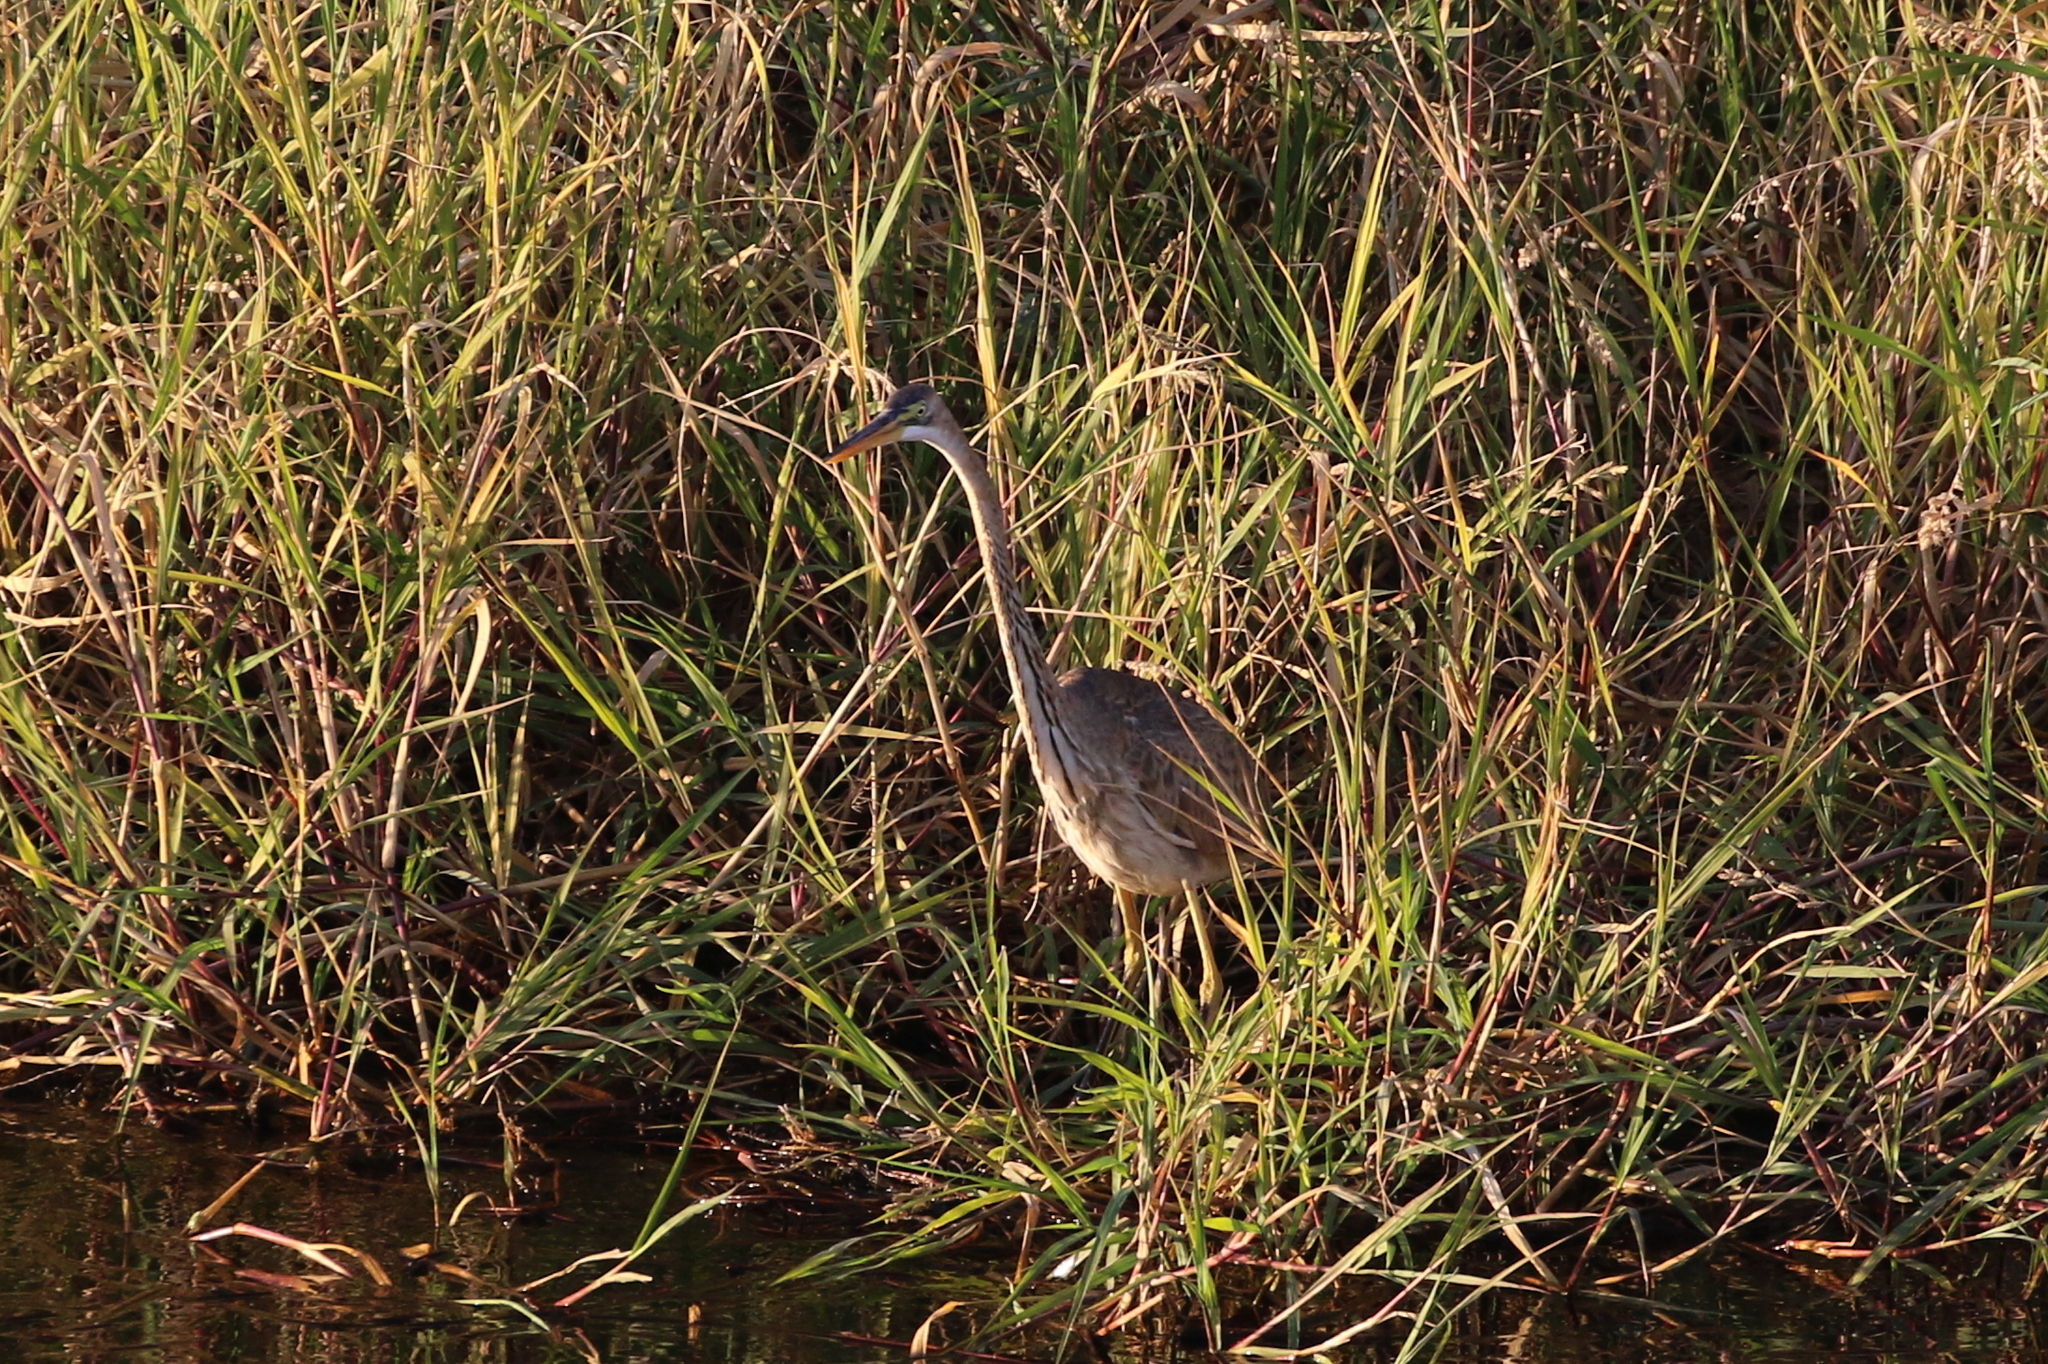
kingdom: Animalia
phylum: Chordata
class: Aves
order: Pelecaniformes
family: Ardeidae
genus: Ardea
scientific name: Ardea purpurea
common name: Purple heron
